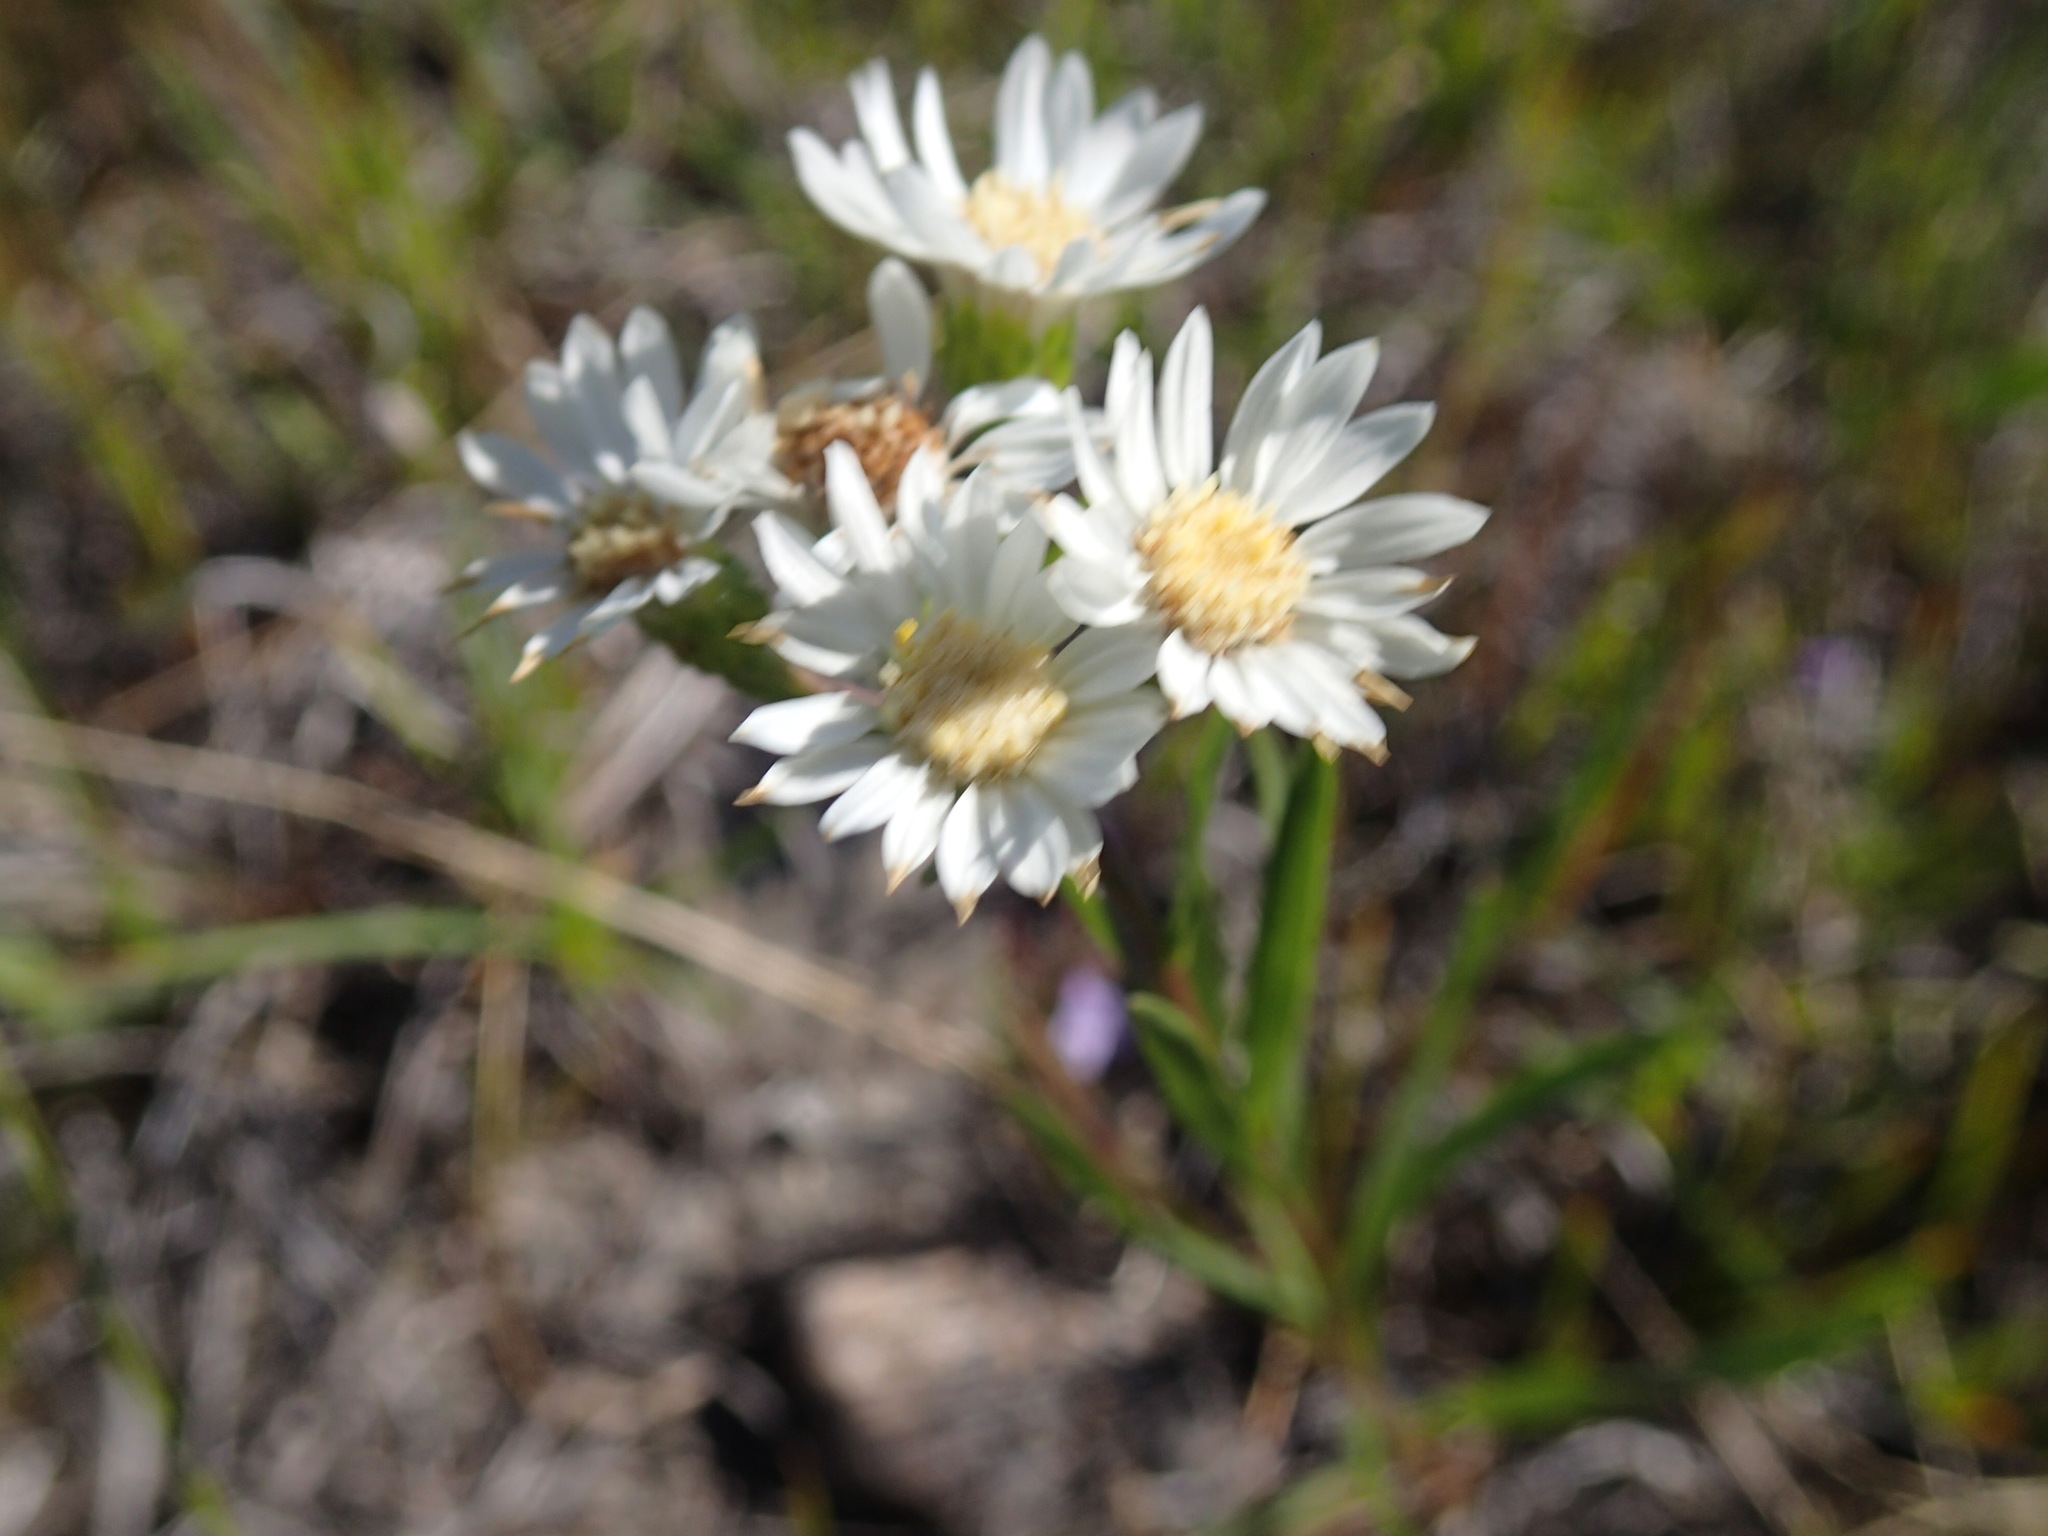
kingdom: Plantae
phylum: Tracheophyta
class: Magnoliopsida
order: Asterales
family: Asteraceae
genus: Solidago
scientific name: Solidago ptarmicoides
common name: White flat-top goldenrod
